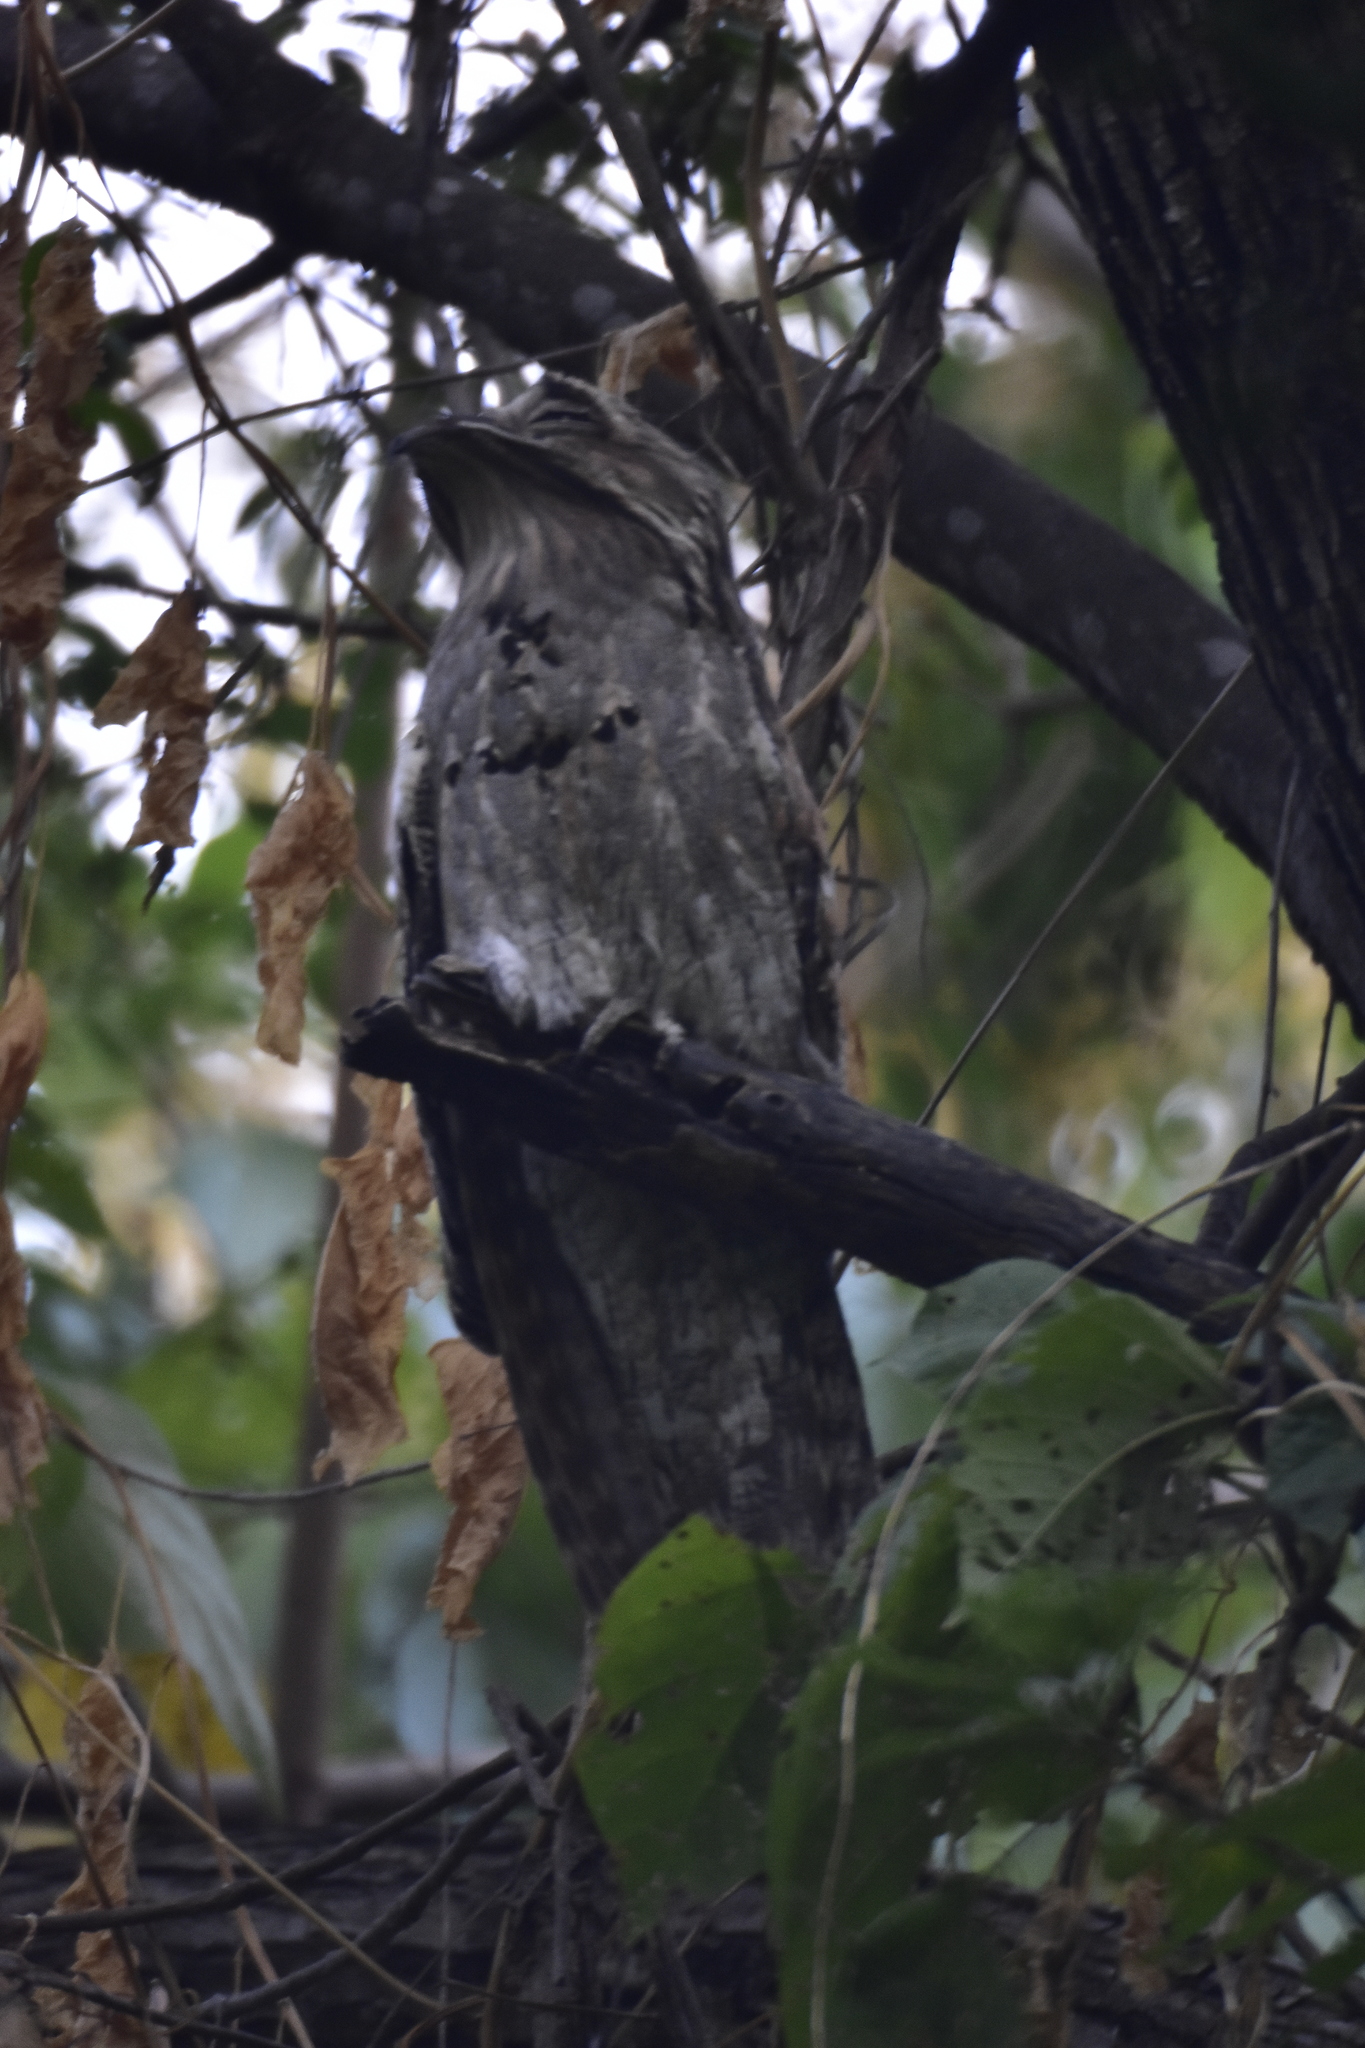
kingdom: Animalia
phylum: Chordata
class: Aves
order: Nyctibiiformes
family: Nyctibiidae
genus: Nyctibius
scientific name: Nyctibius jamaicensis
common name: Northern potoo
